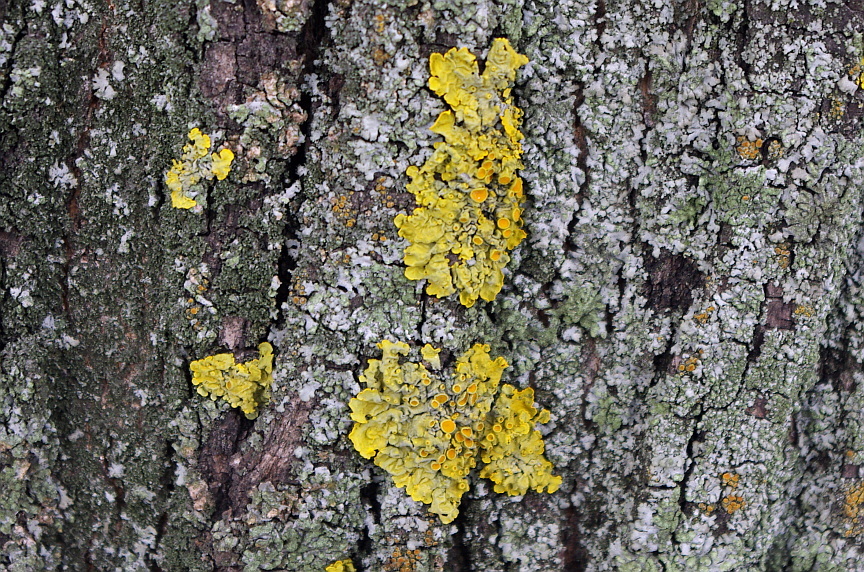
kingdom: Fungi
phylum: Ascomycota
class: Lecanoromycetes
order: Teloschistales
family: Teloschistaceae
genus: Xanthoria
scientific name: Xanthoria parietina
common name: Common orange lichen
